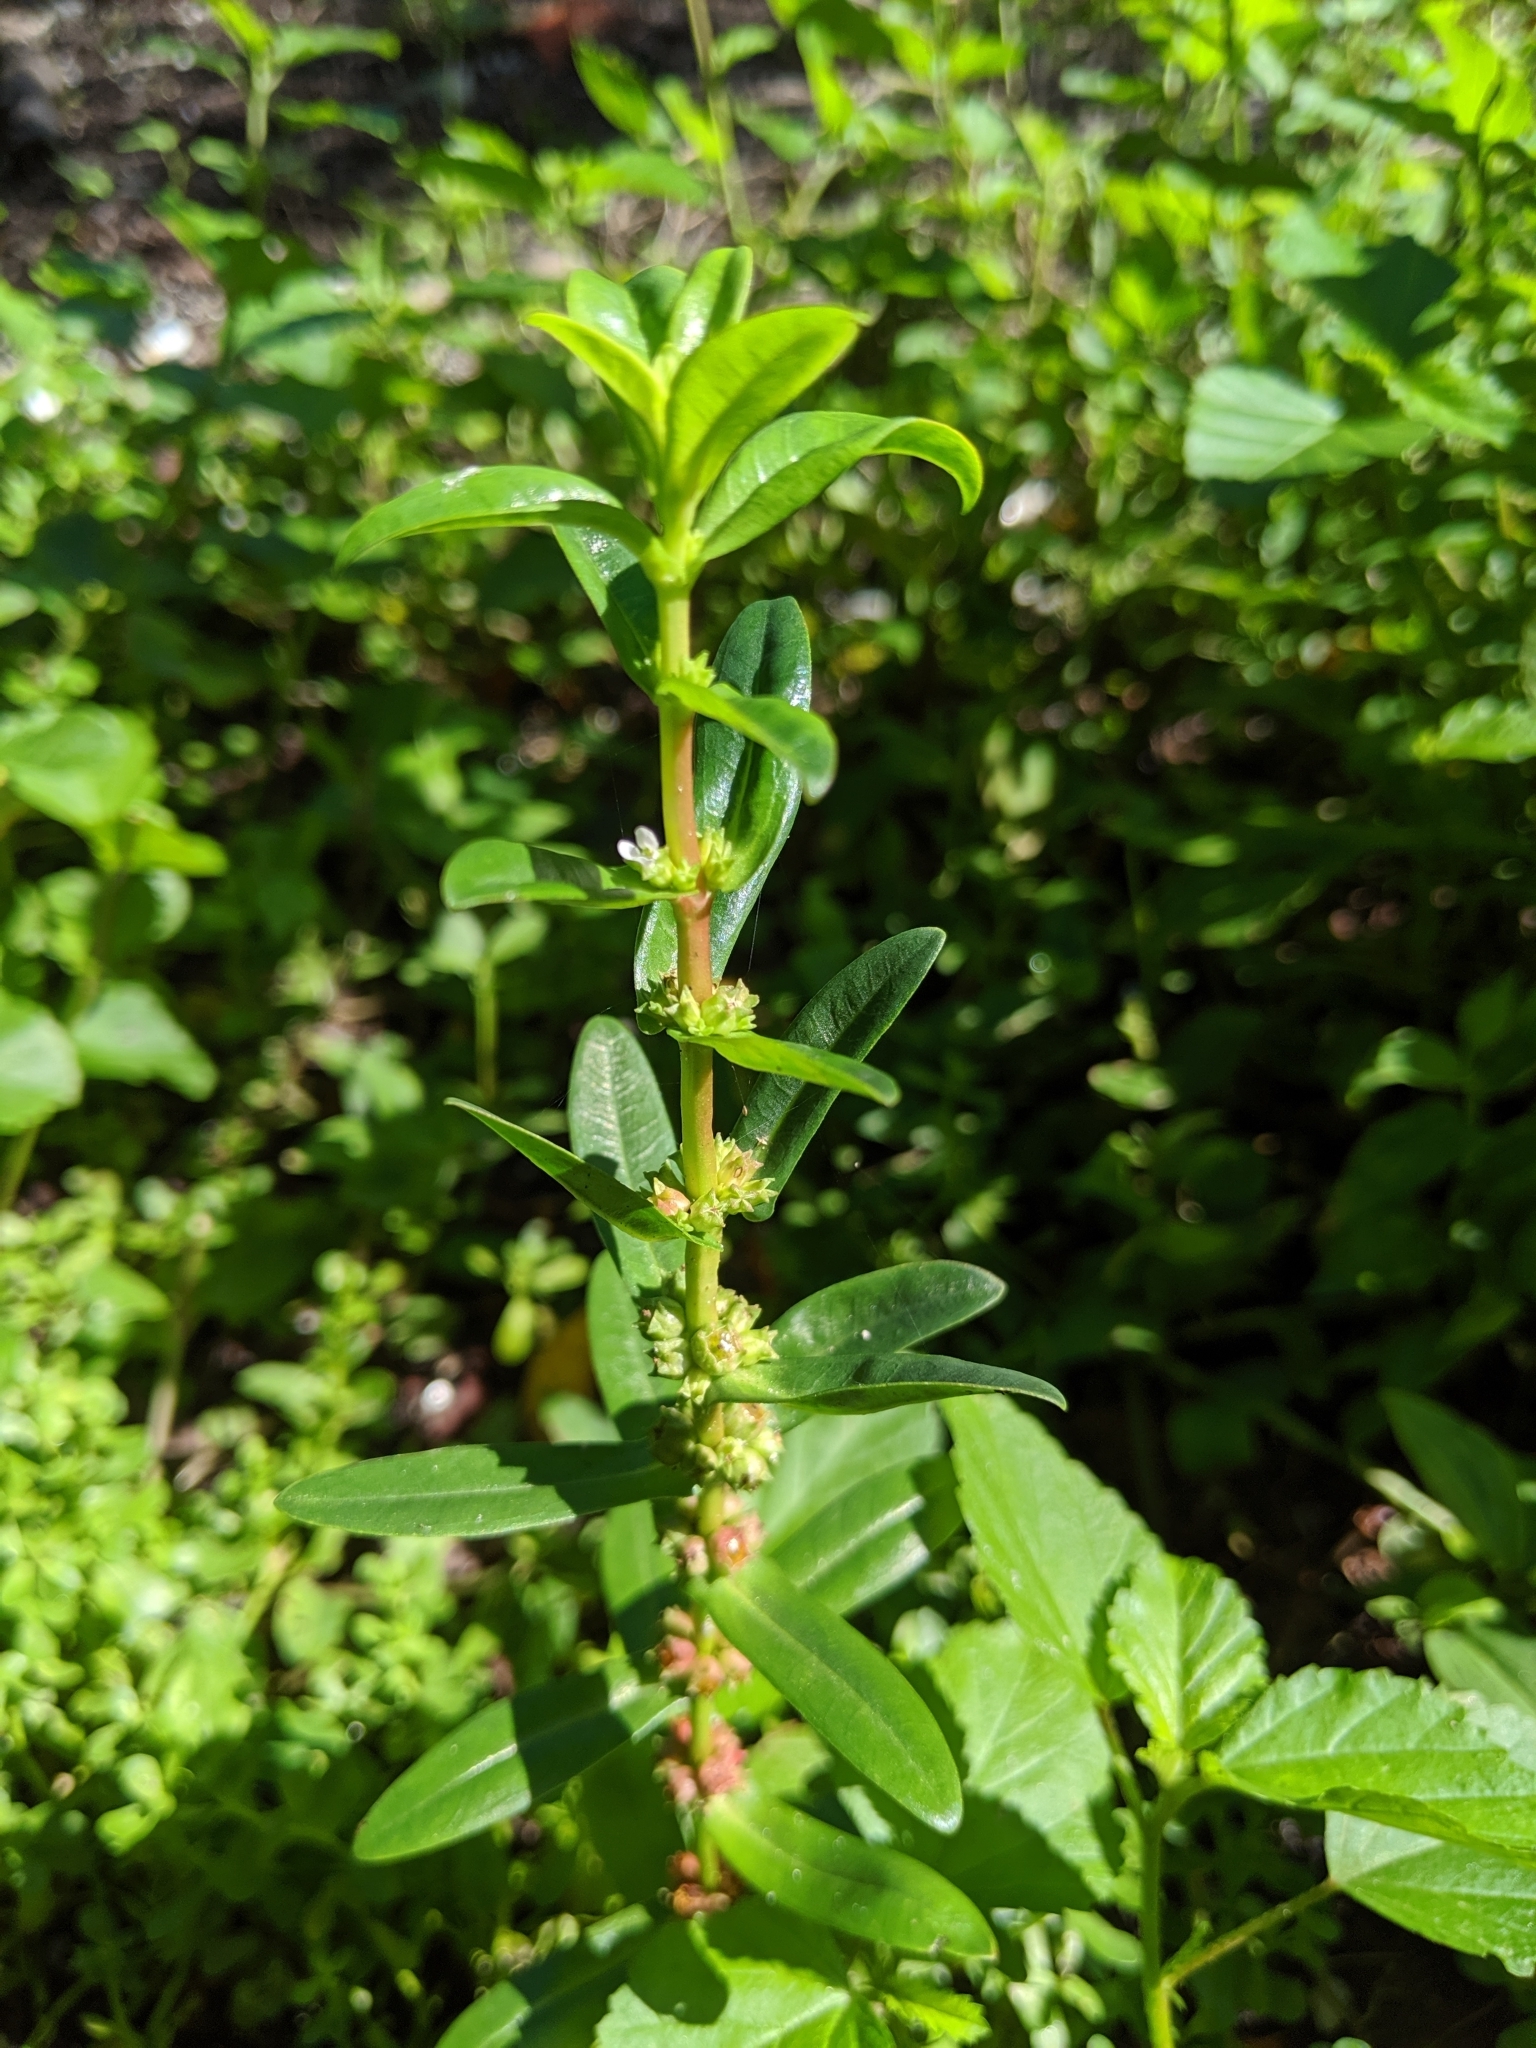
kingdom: Plantae
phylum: Tracheophyta
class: Magnoliopsida
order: Myrtales
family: Lythraceae
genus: Ammannia
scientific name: Ammannia latifolia
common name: Toothcup
